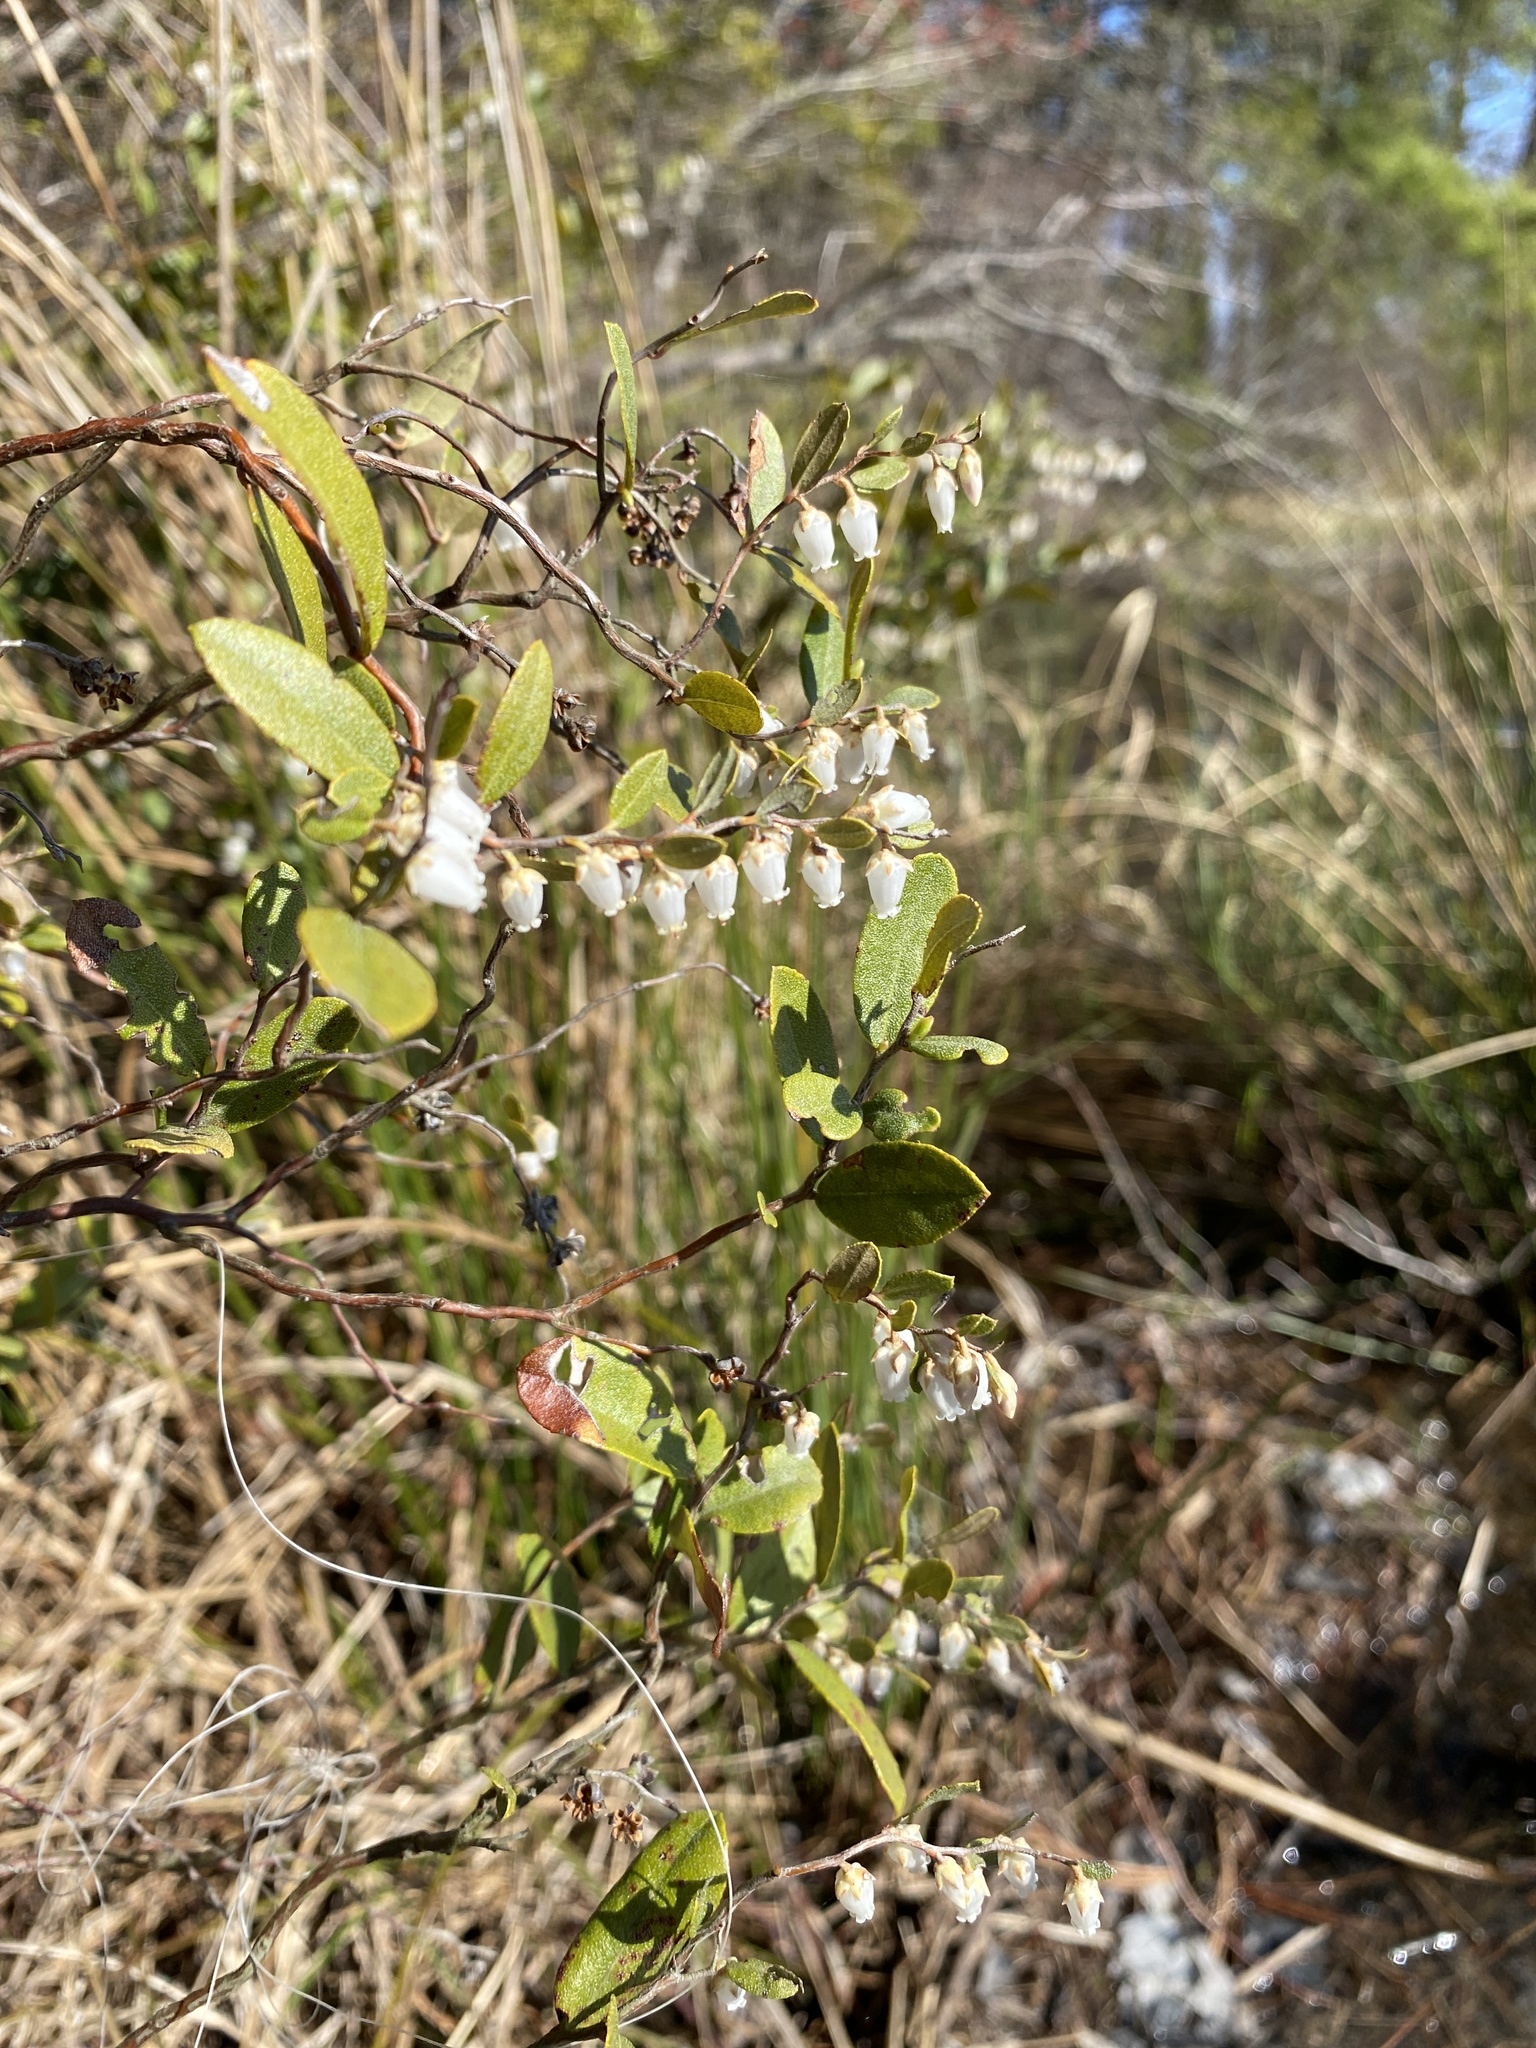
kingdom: Plantae
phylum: Tracheophyta
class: Magnoliopsida
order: Ericales
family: Ericaceae
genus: Chamaedaphne
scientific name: Chamaedaphne calyculata
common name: Leatherleaf
